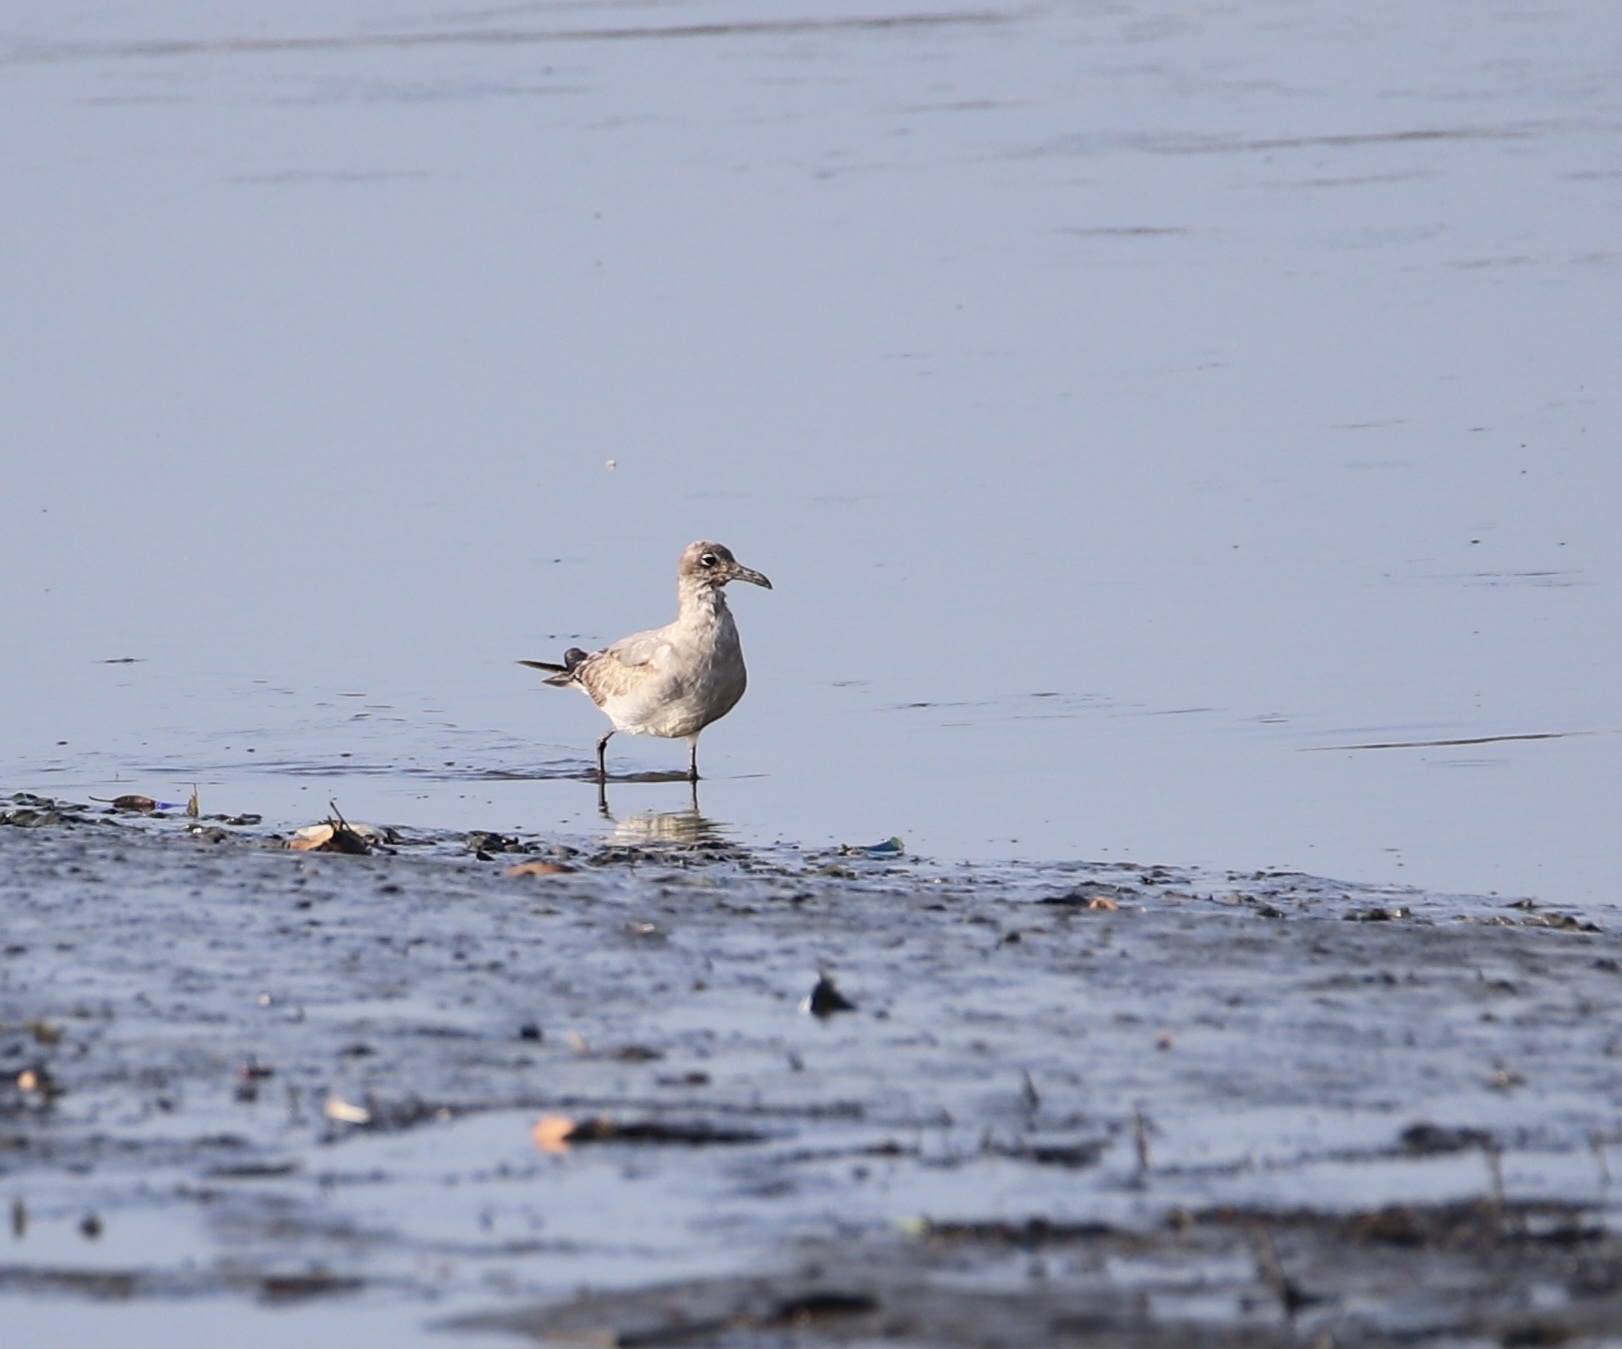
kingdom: Animalia
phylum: Chordata
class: Aves
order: Charadriiformes
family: Laridae
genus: Leucophaeus
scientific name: Leucophaeus pipixcan
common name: Franklin's gull
